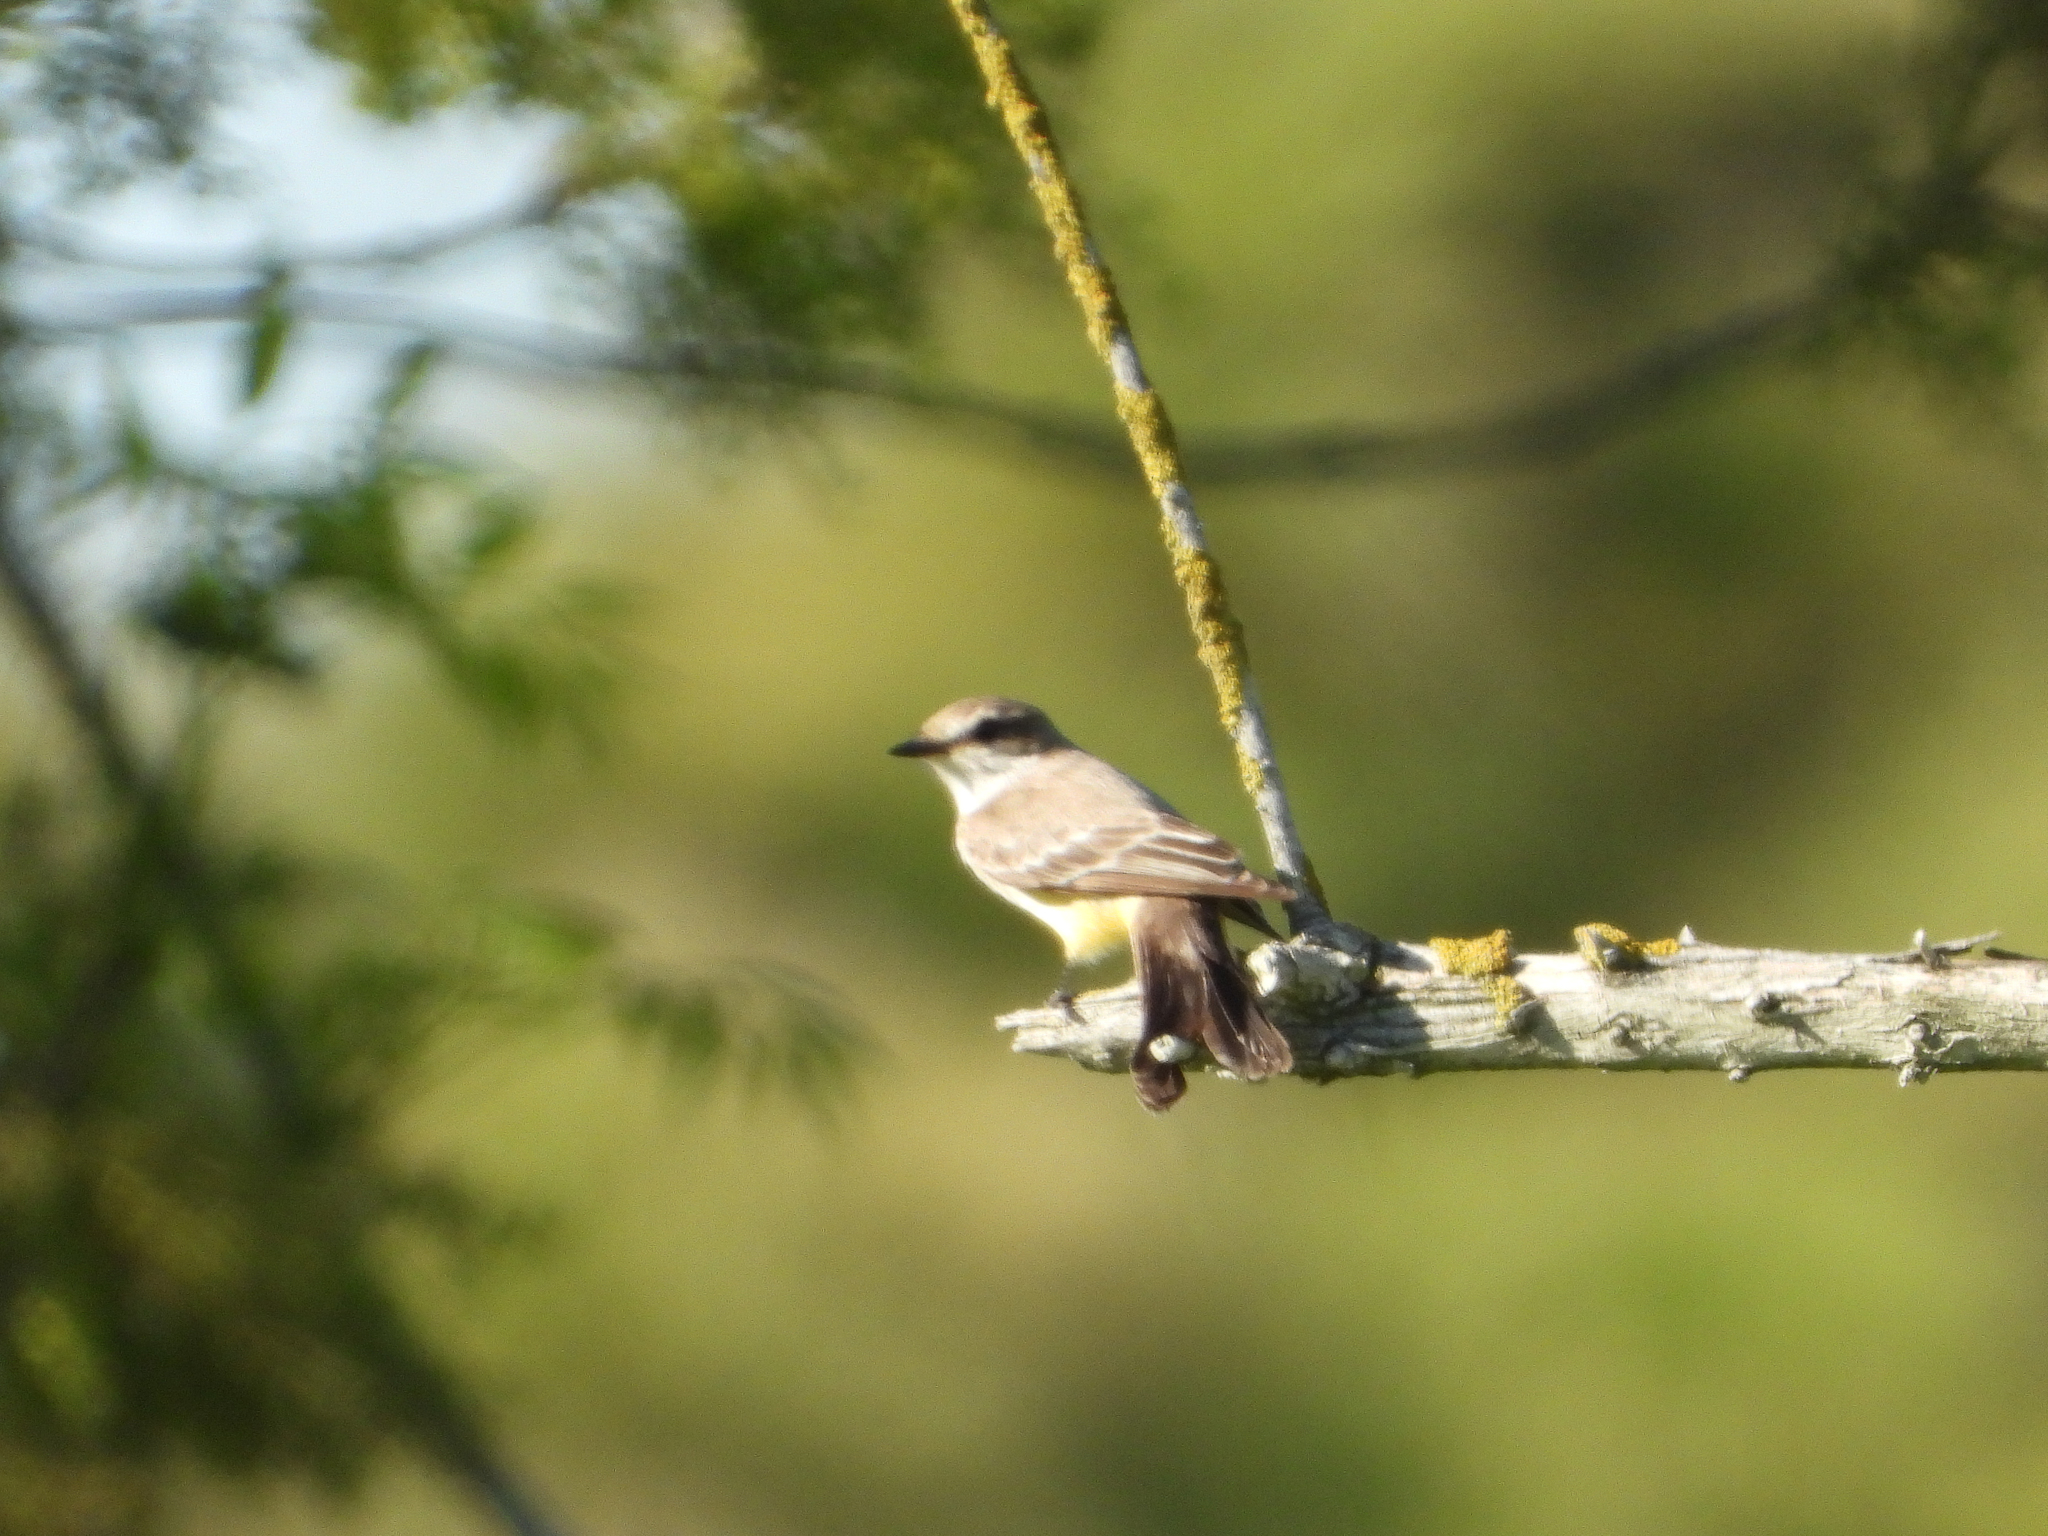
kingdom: Animalia
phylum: Chordata
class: Aves
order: Passeriformes
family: Tyrannidae
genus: Pyrocephalus
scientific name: Pyrocephalus rubinus
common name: Vermilion flycatcher
